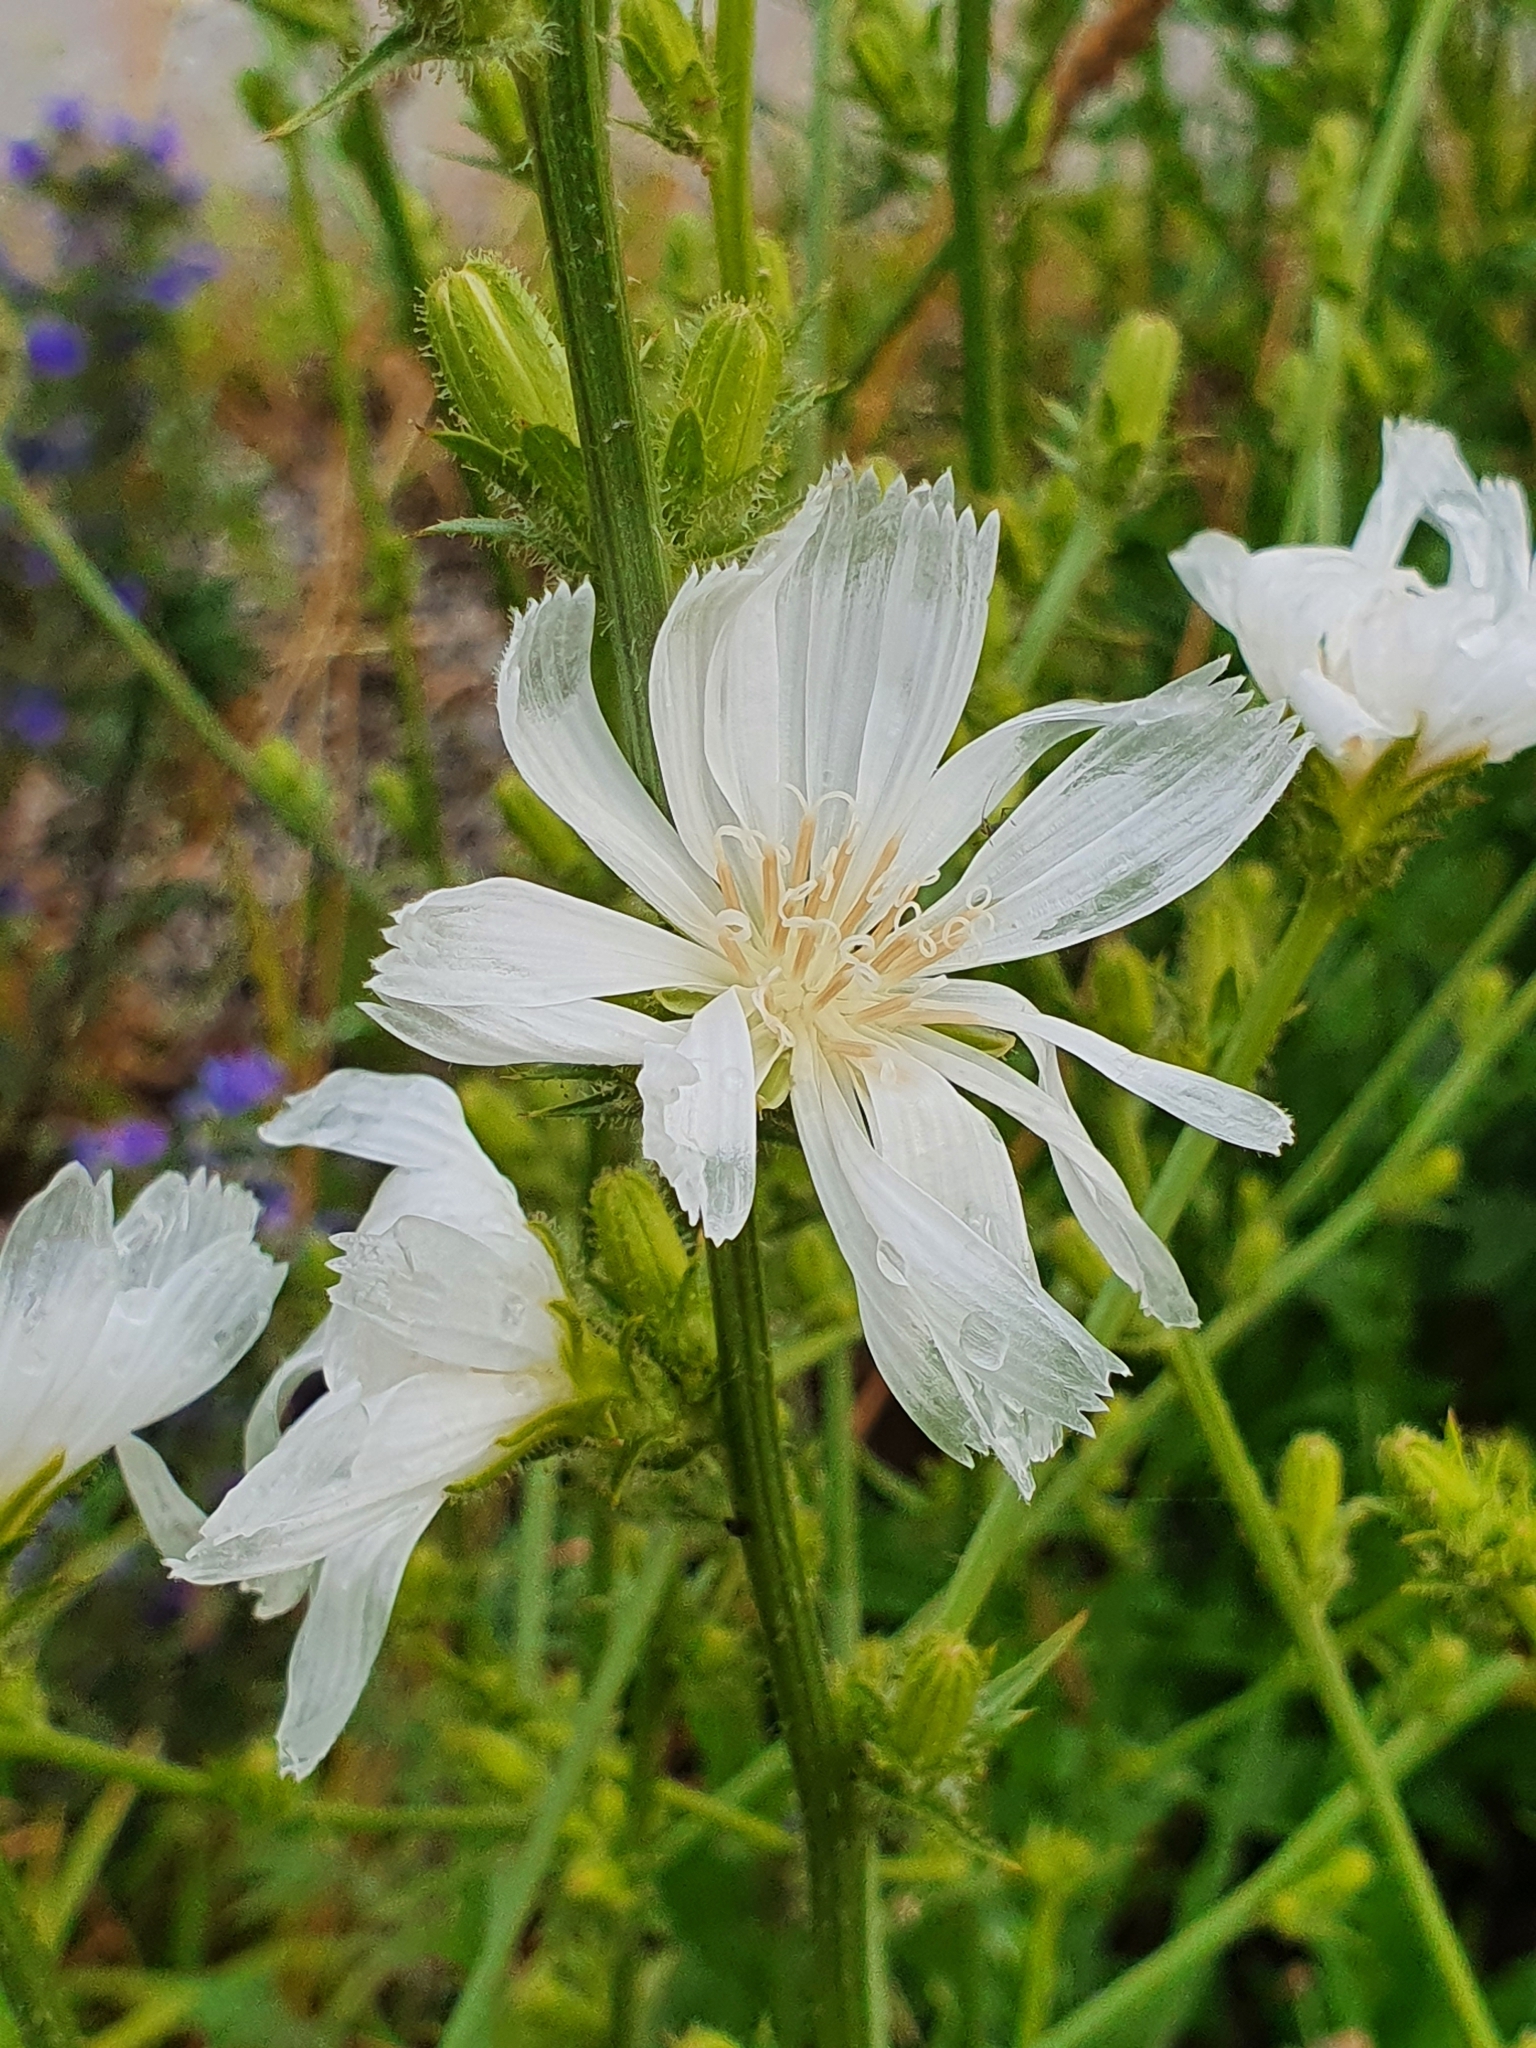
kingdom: Plantae
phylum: Tracheophyta
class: Magnoliopsida
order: Asterales
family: Asteraceae
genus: Cichorium
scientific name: Cichorium intybus
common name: Chicory
